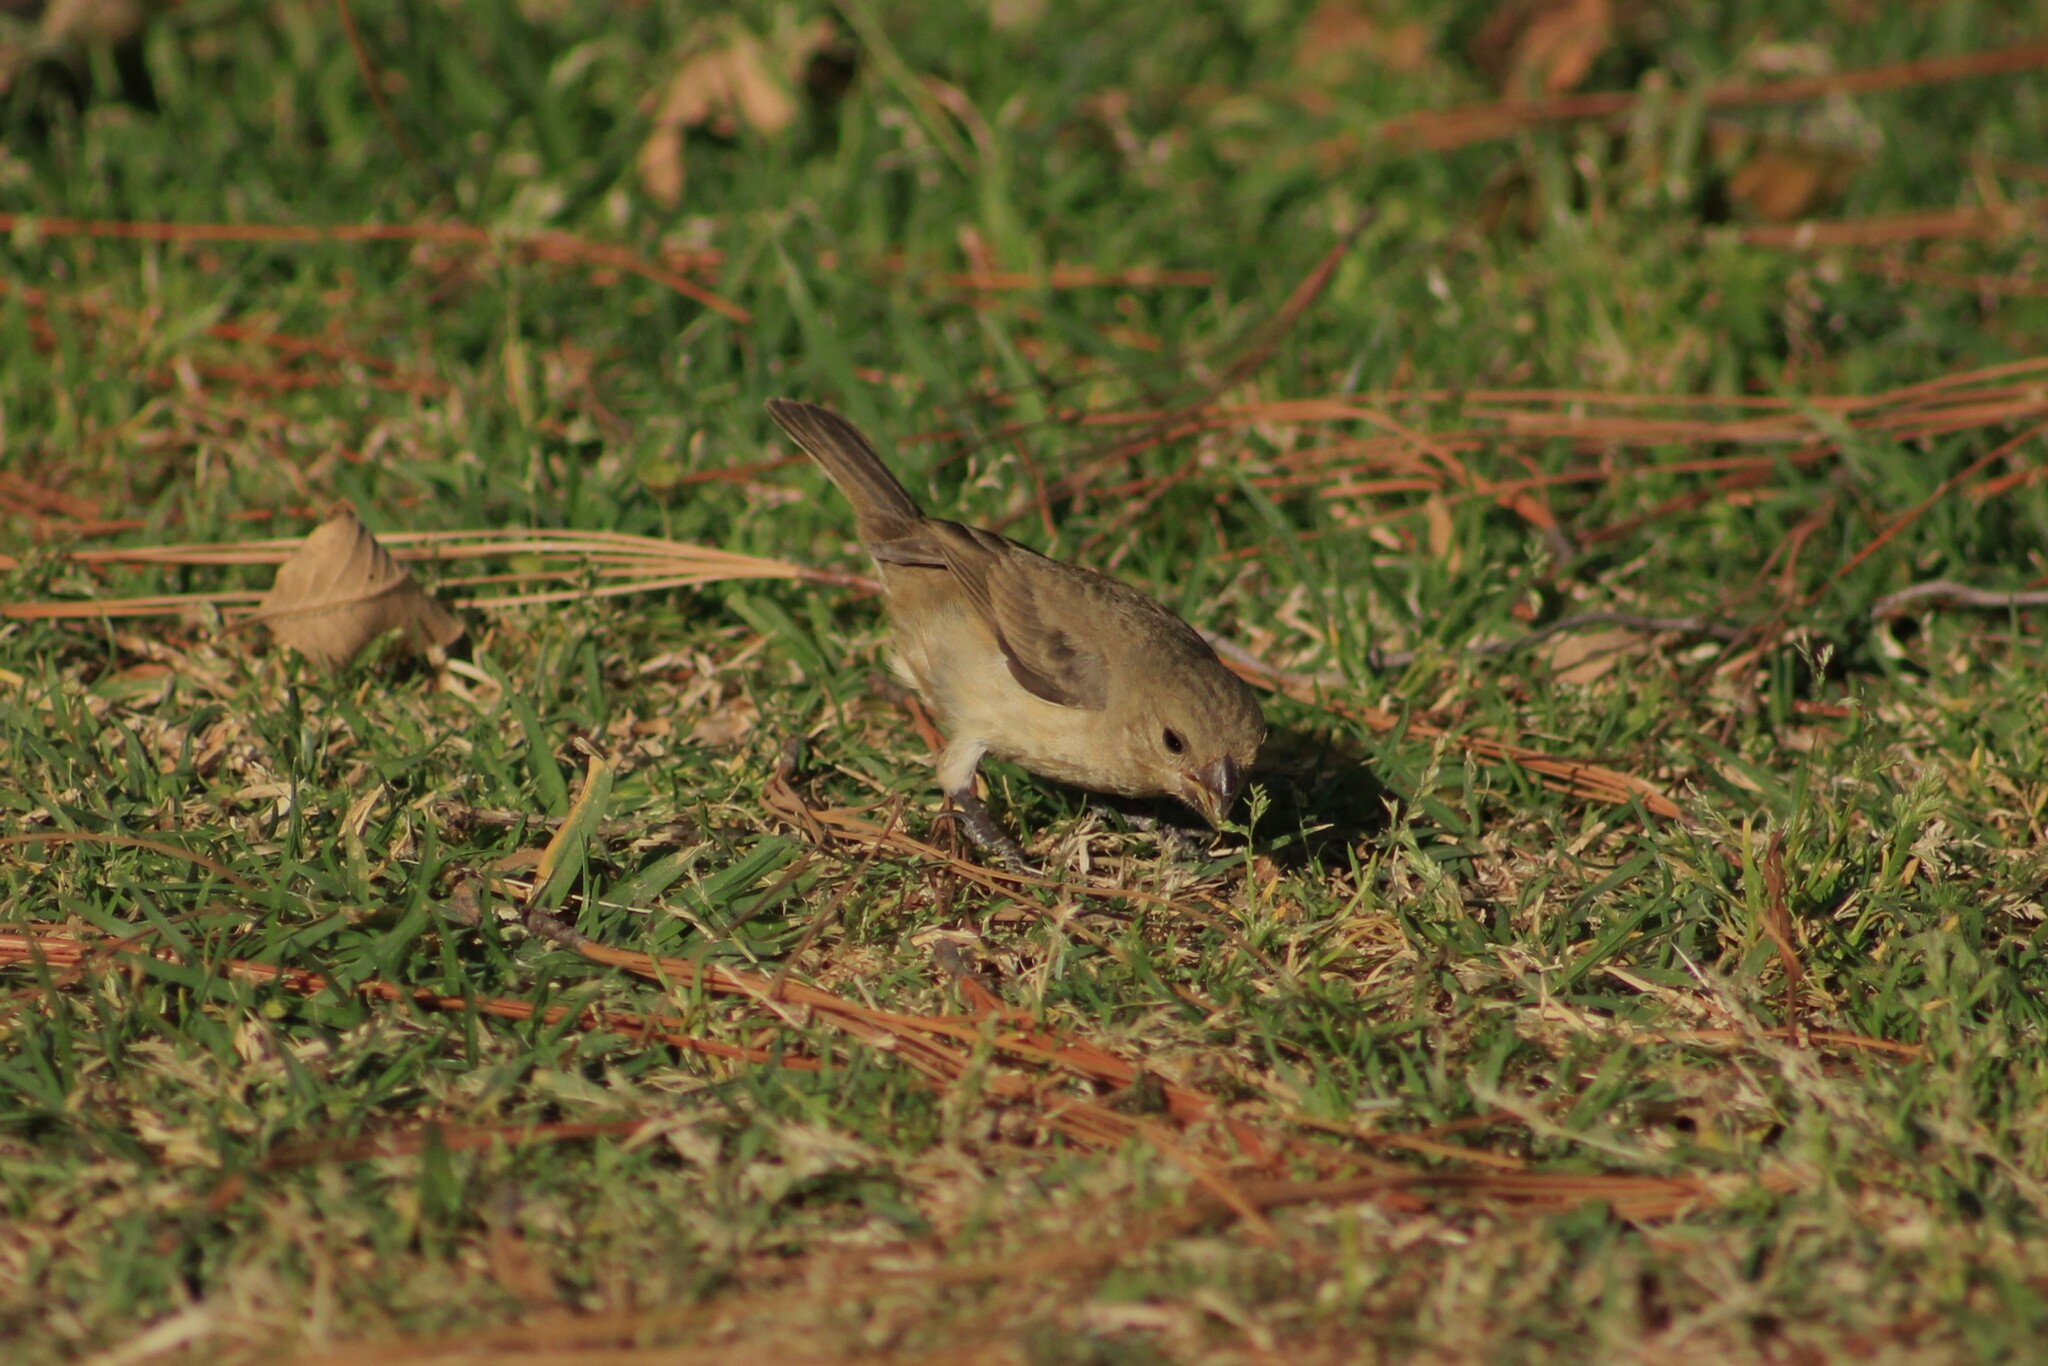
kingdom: Animalia
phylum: Chordata
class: Aves
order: Passeriformes
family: Thraupidae
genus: Sporophila
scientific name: Sporophila torqueola
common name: White-collared seedeater
